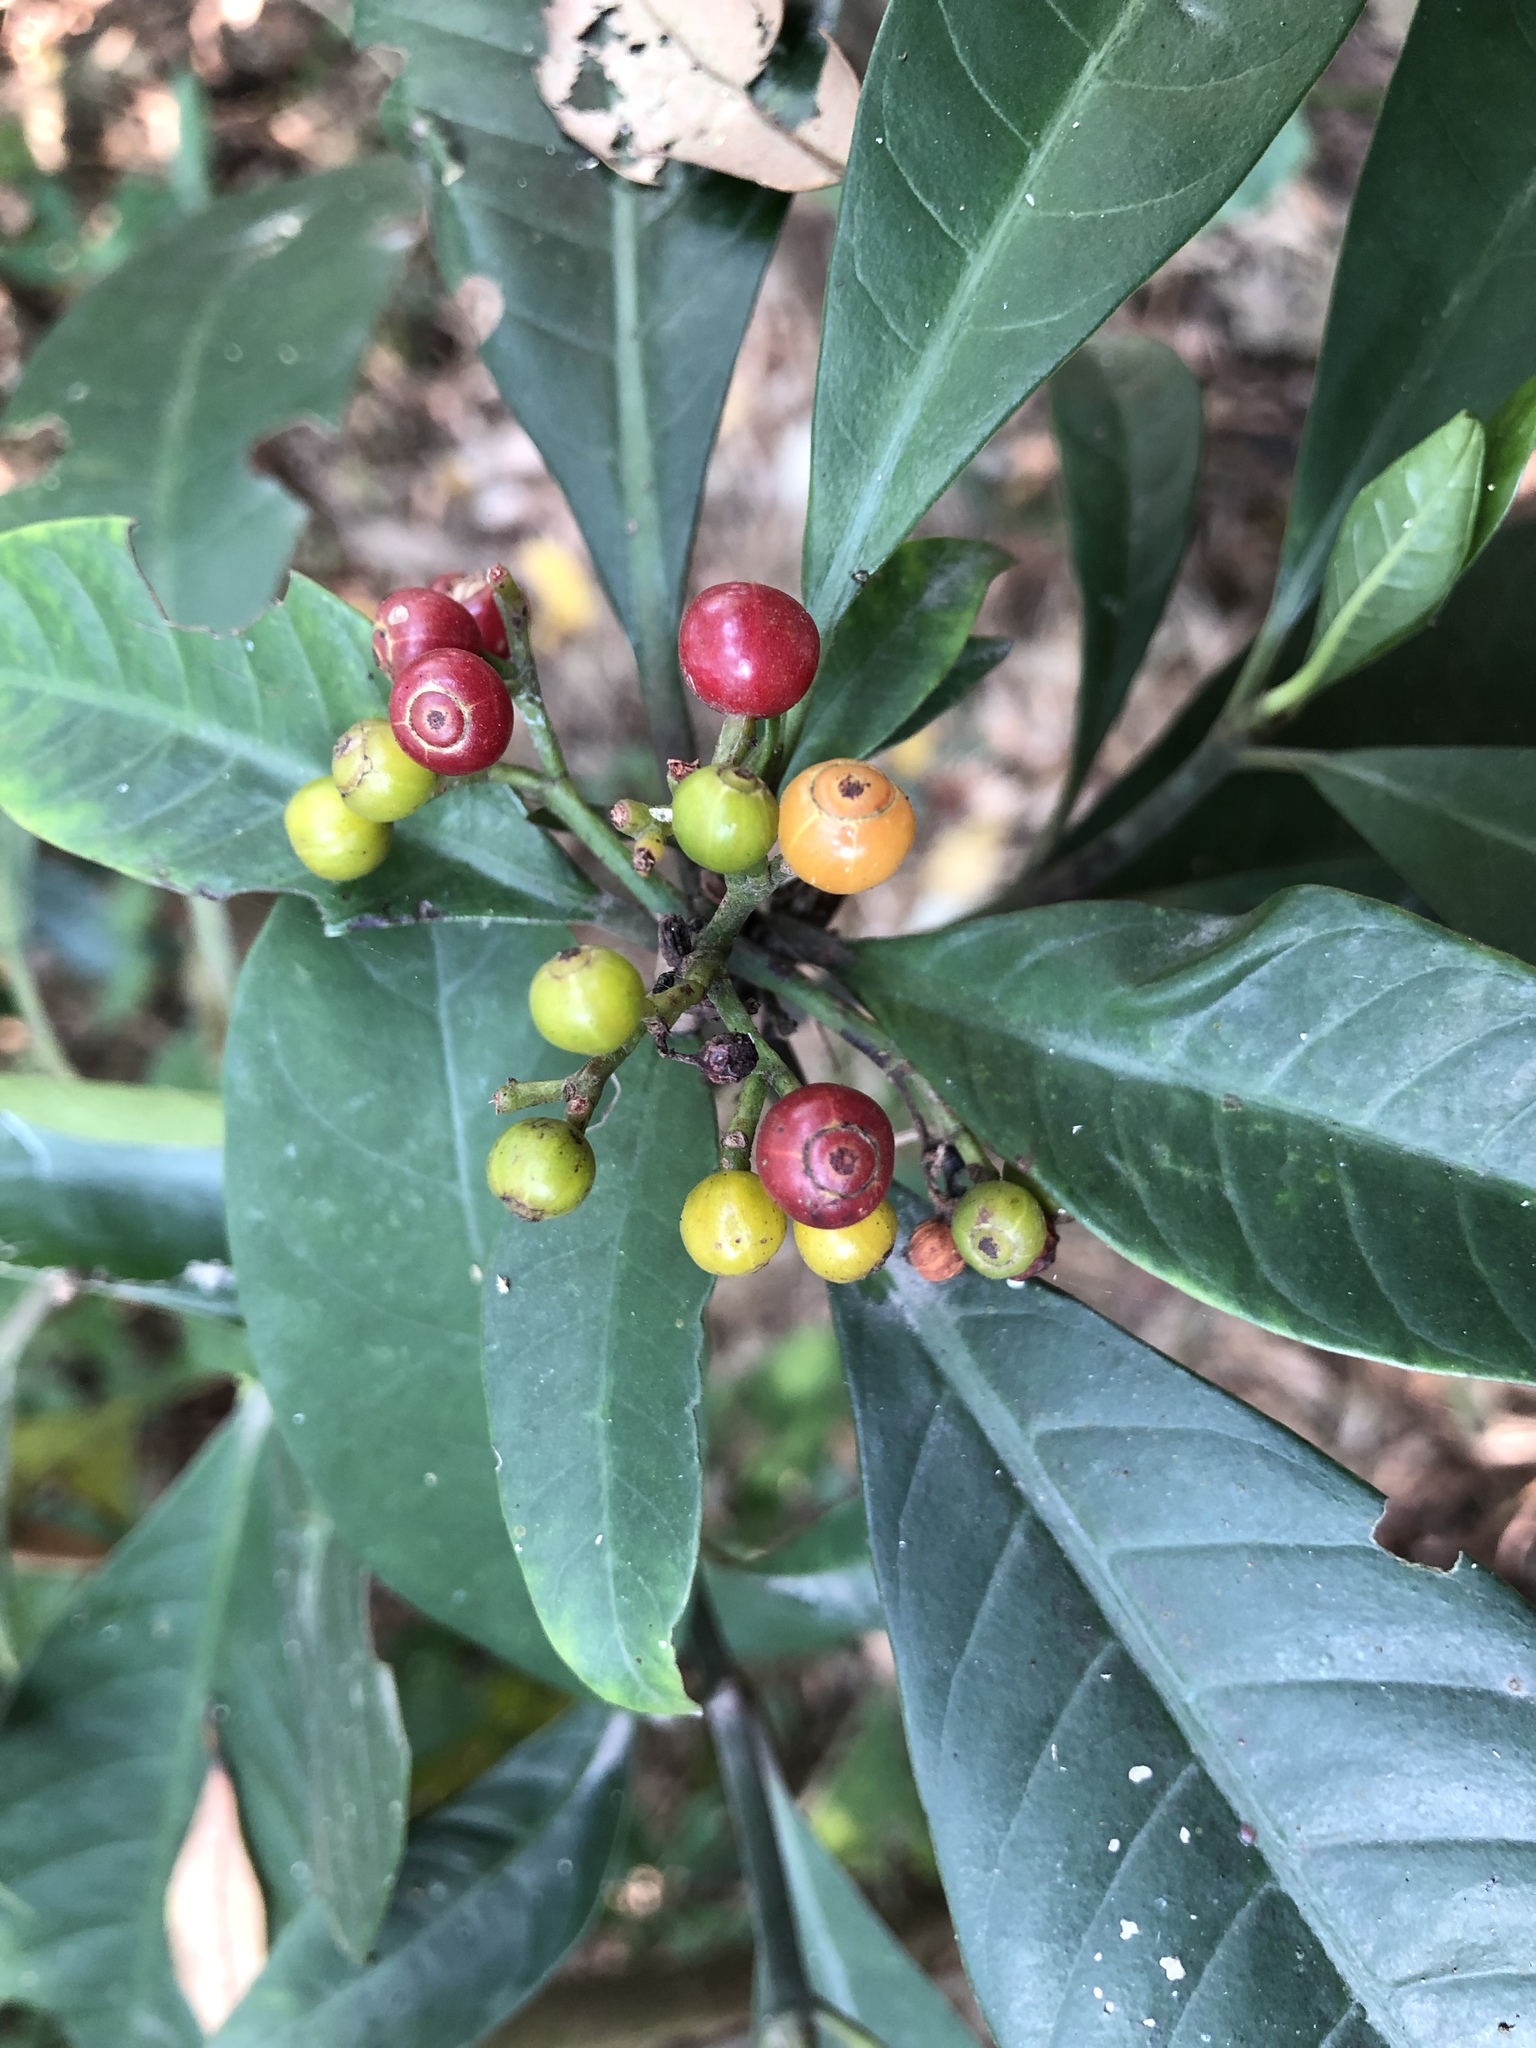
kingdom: Plantae
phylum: Tracheophyta
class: Magnoliopsida
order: Gentianales
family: Rubiaceae
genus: Psychotria
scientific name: Psychotria asiatica
